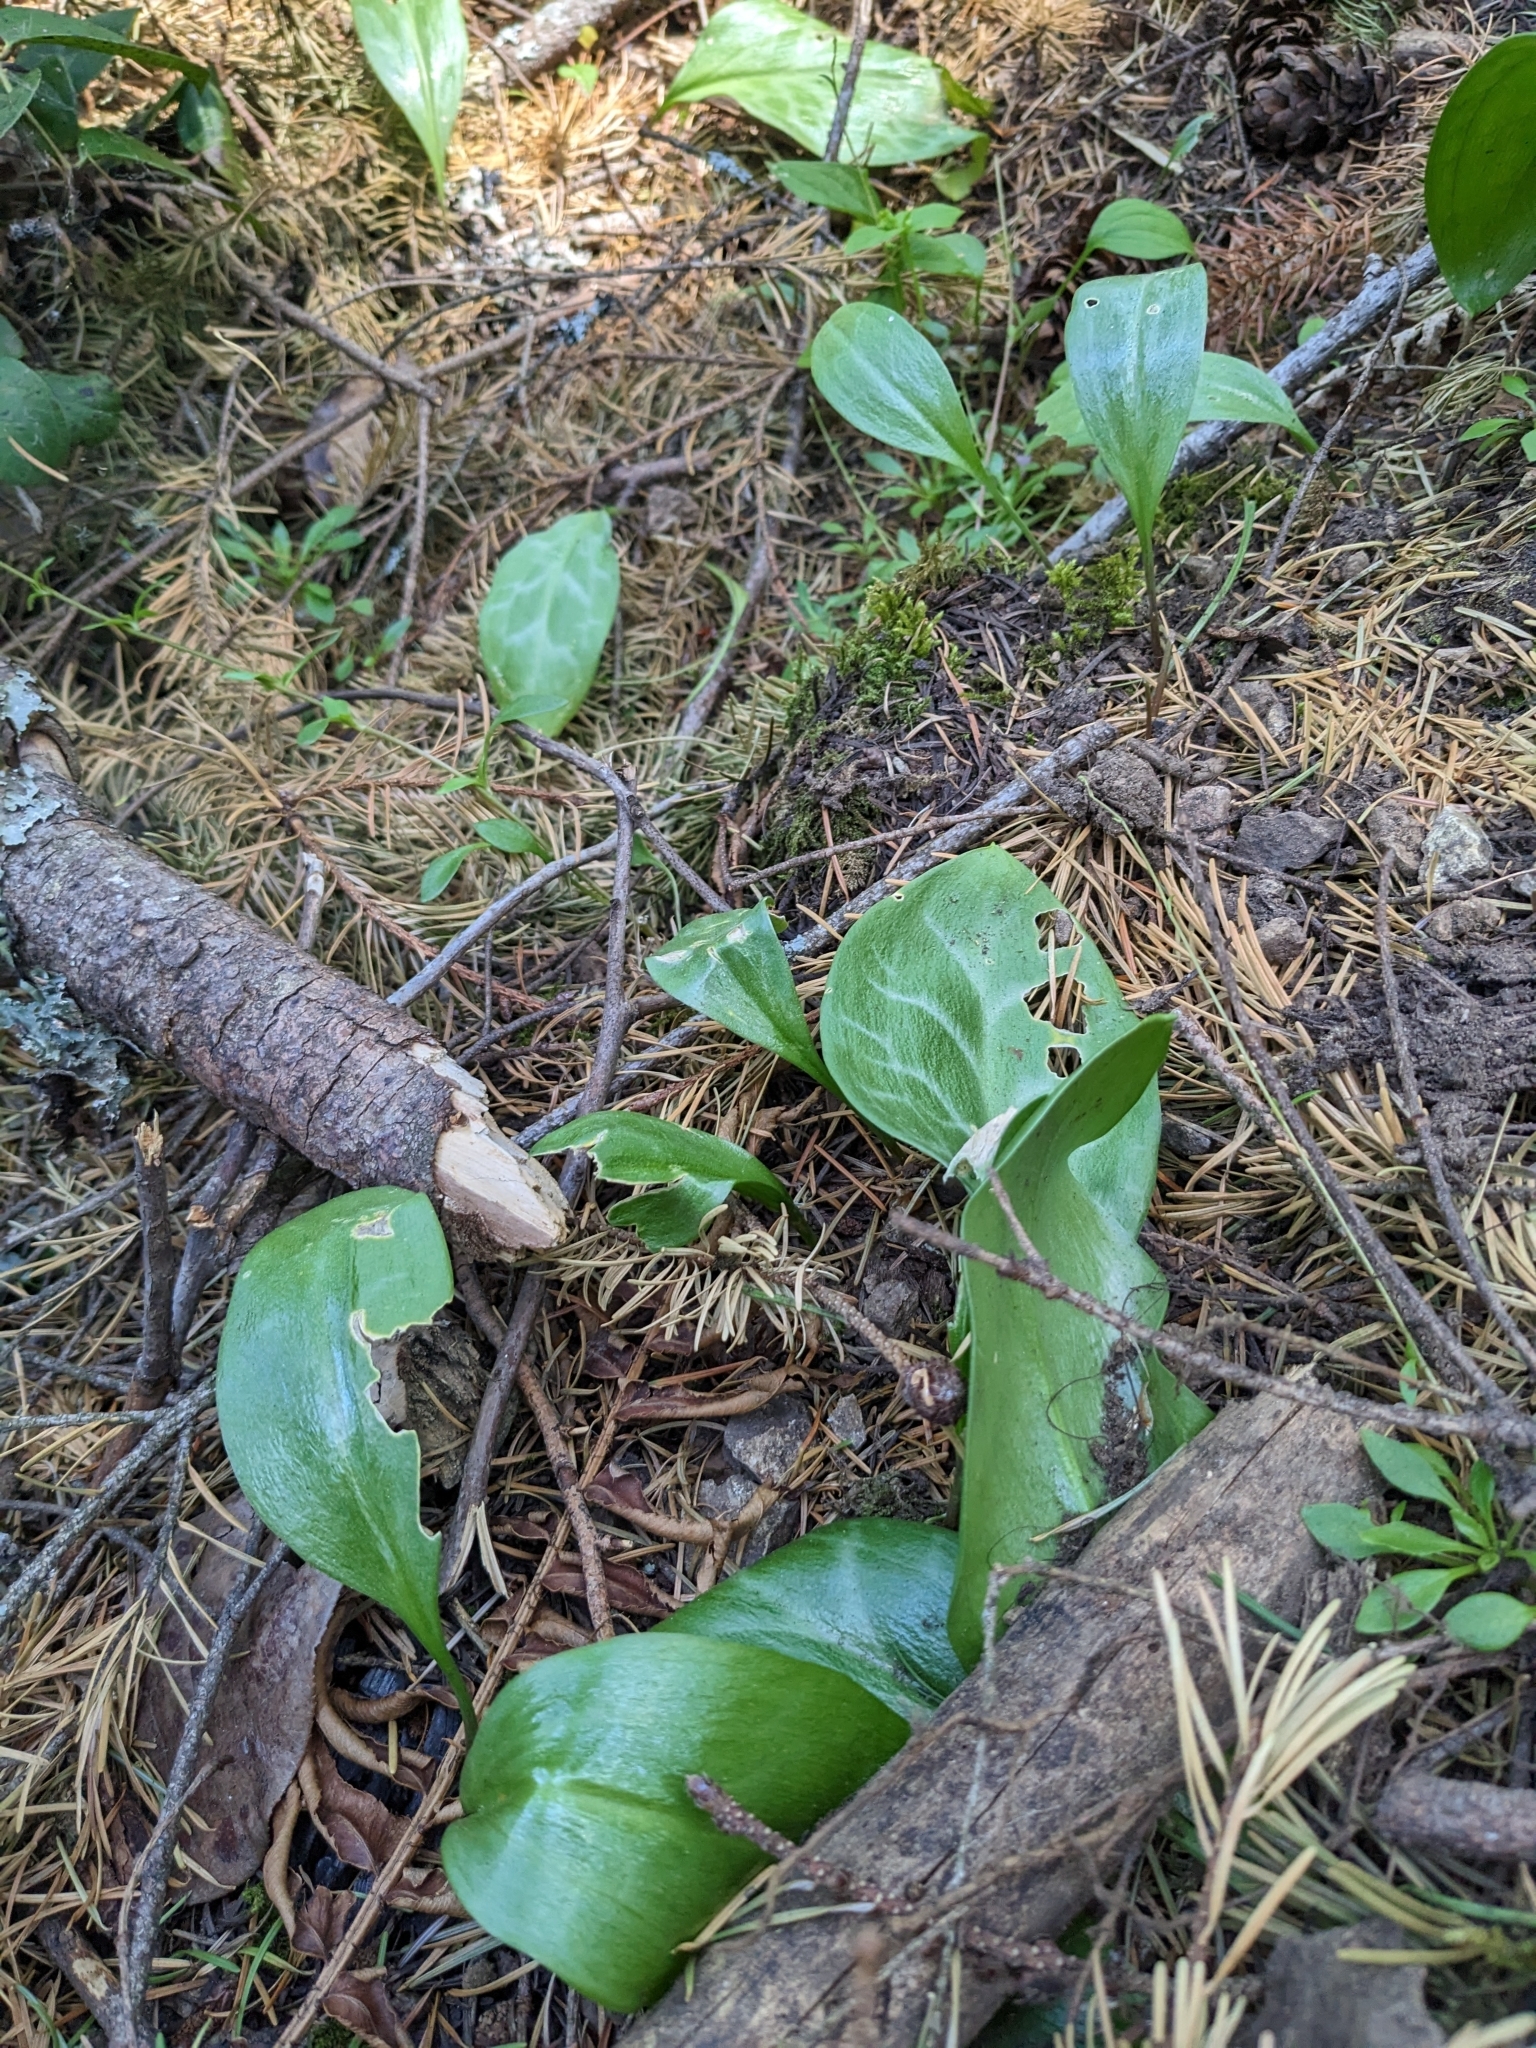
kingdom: Plantae
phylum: Tracheophyta
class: Liliopsida
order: Liliales
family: Liliaceae
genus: Erythronium
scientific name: Erythronium oregonum
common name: Giant adder's-tongue
